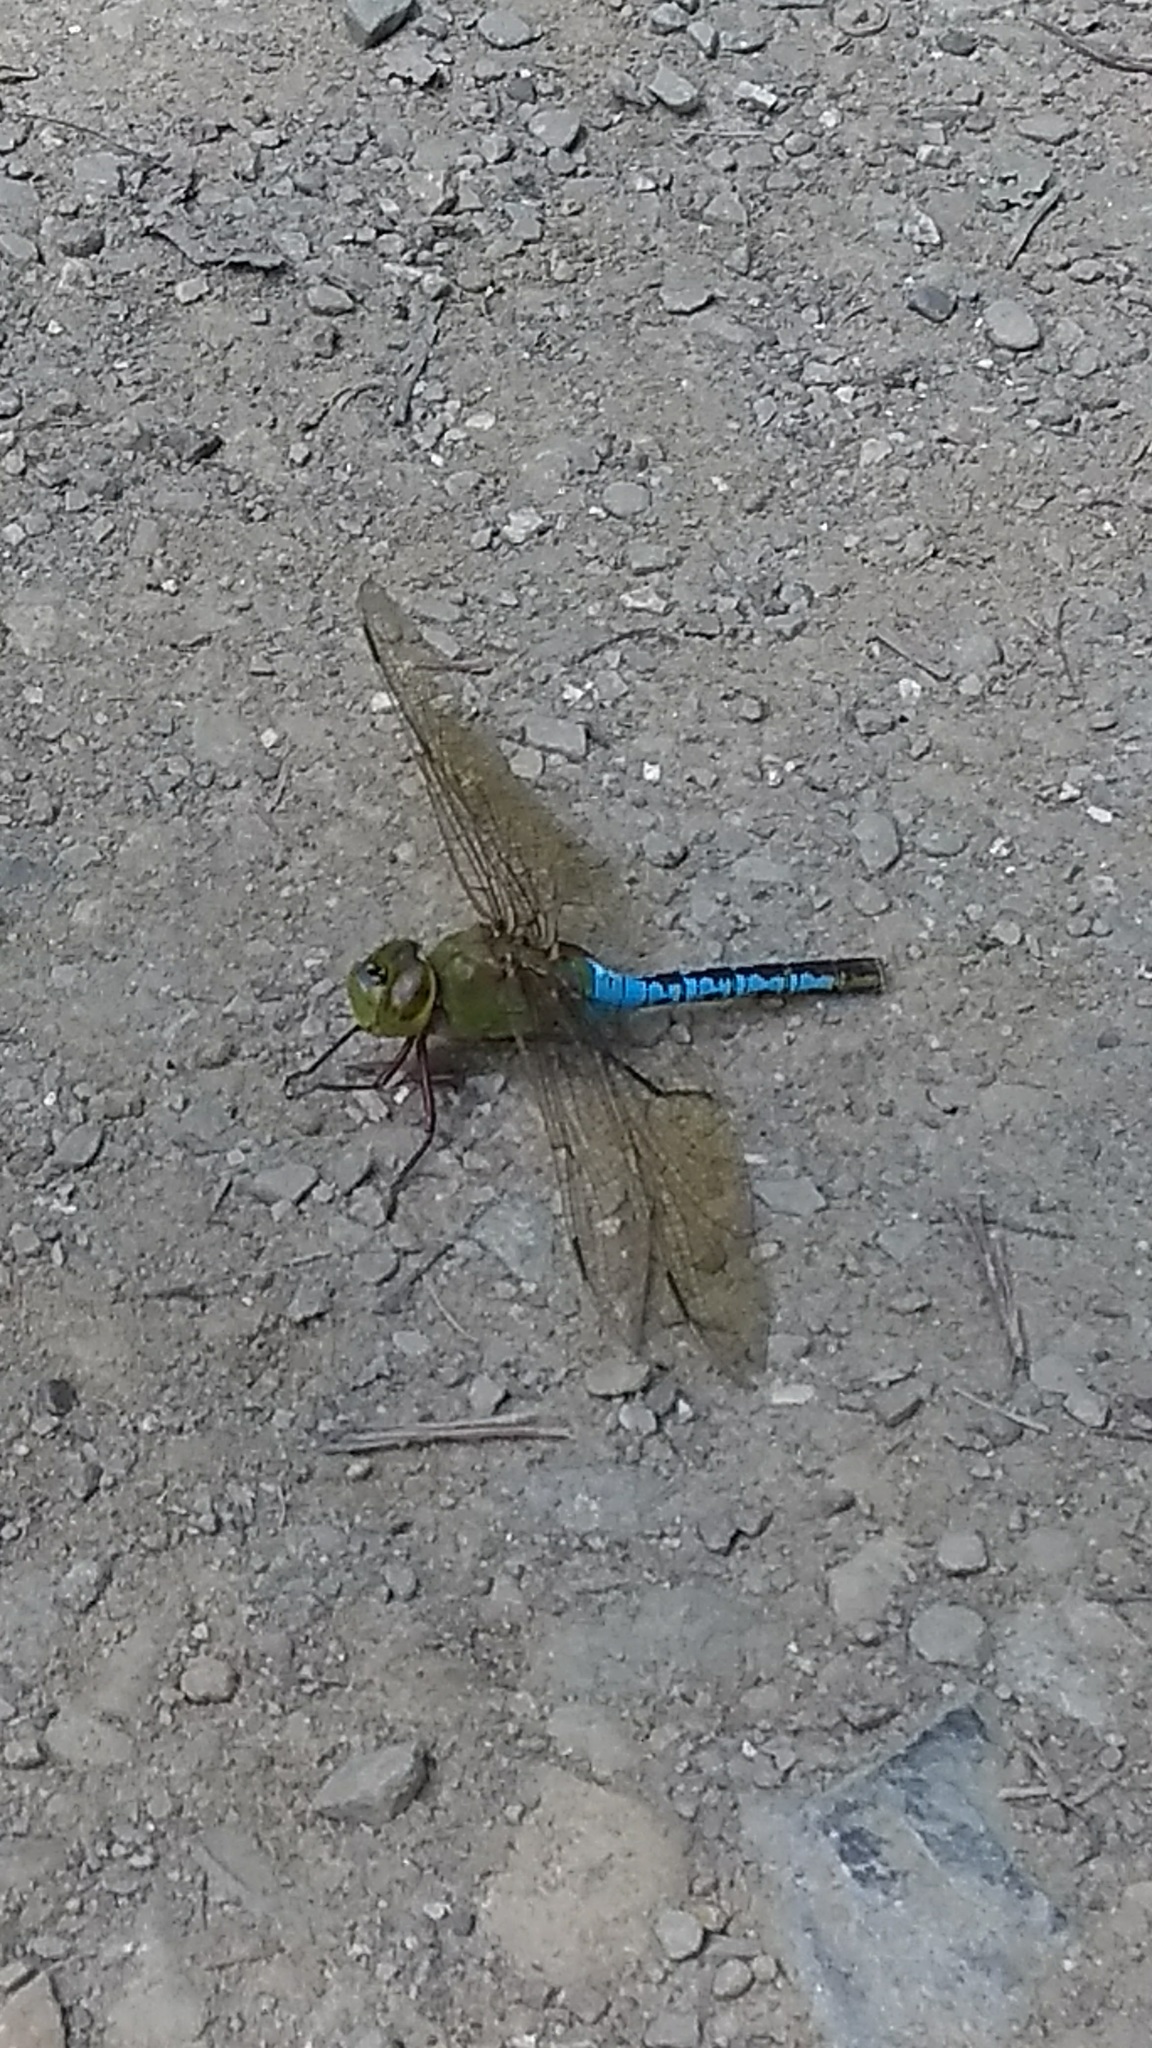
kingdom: Animalia
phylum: Arthropoda
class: Insecta
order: Odonata
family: Aeshnidae
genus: Anax
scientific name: Anax junius
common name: Common green darner
